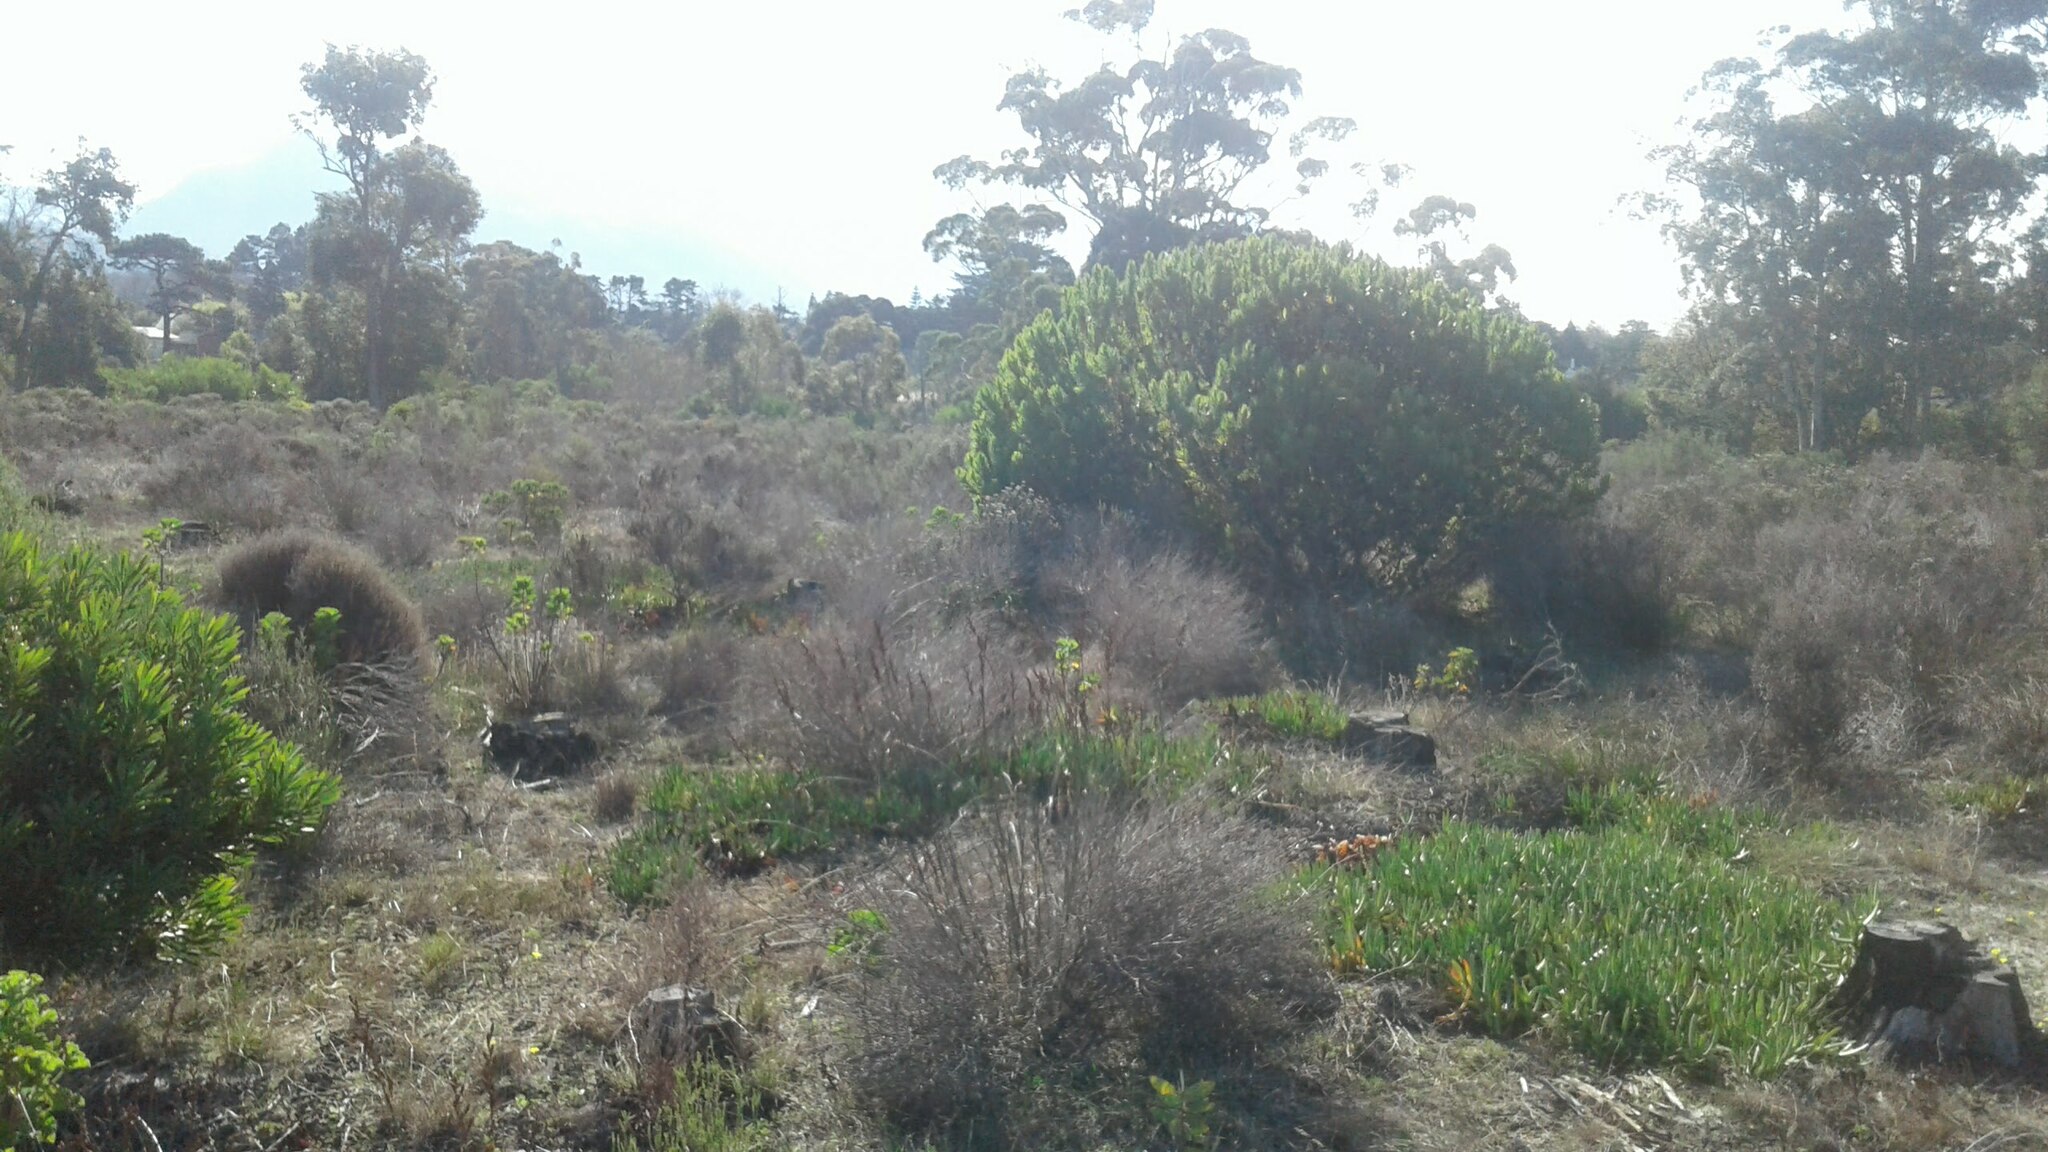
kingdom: Plantae
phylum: Tracheophyta
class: Magnoliopsida
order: Proteales
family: Proteaceae
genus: Leucadendron
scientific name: Leucadendron laureolum
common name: Golden sunshinebush
